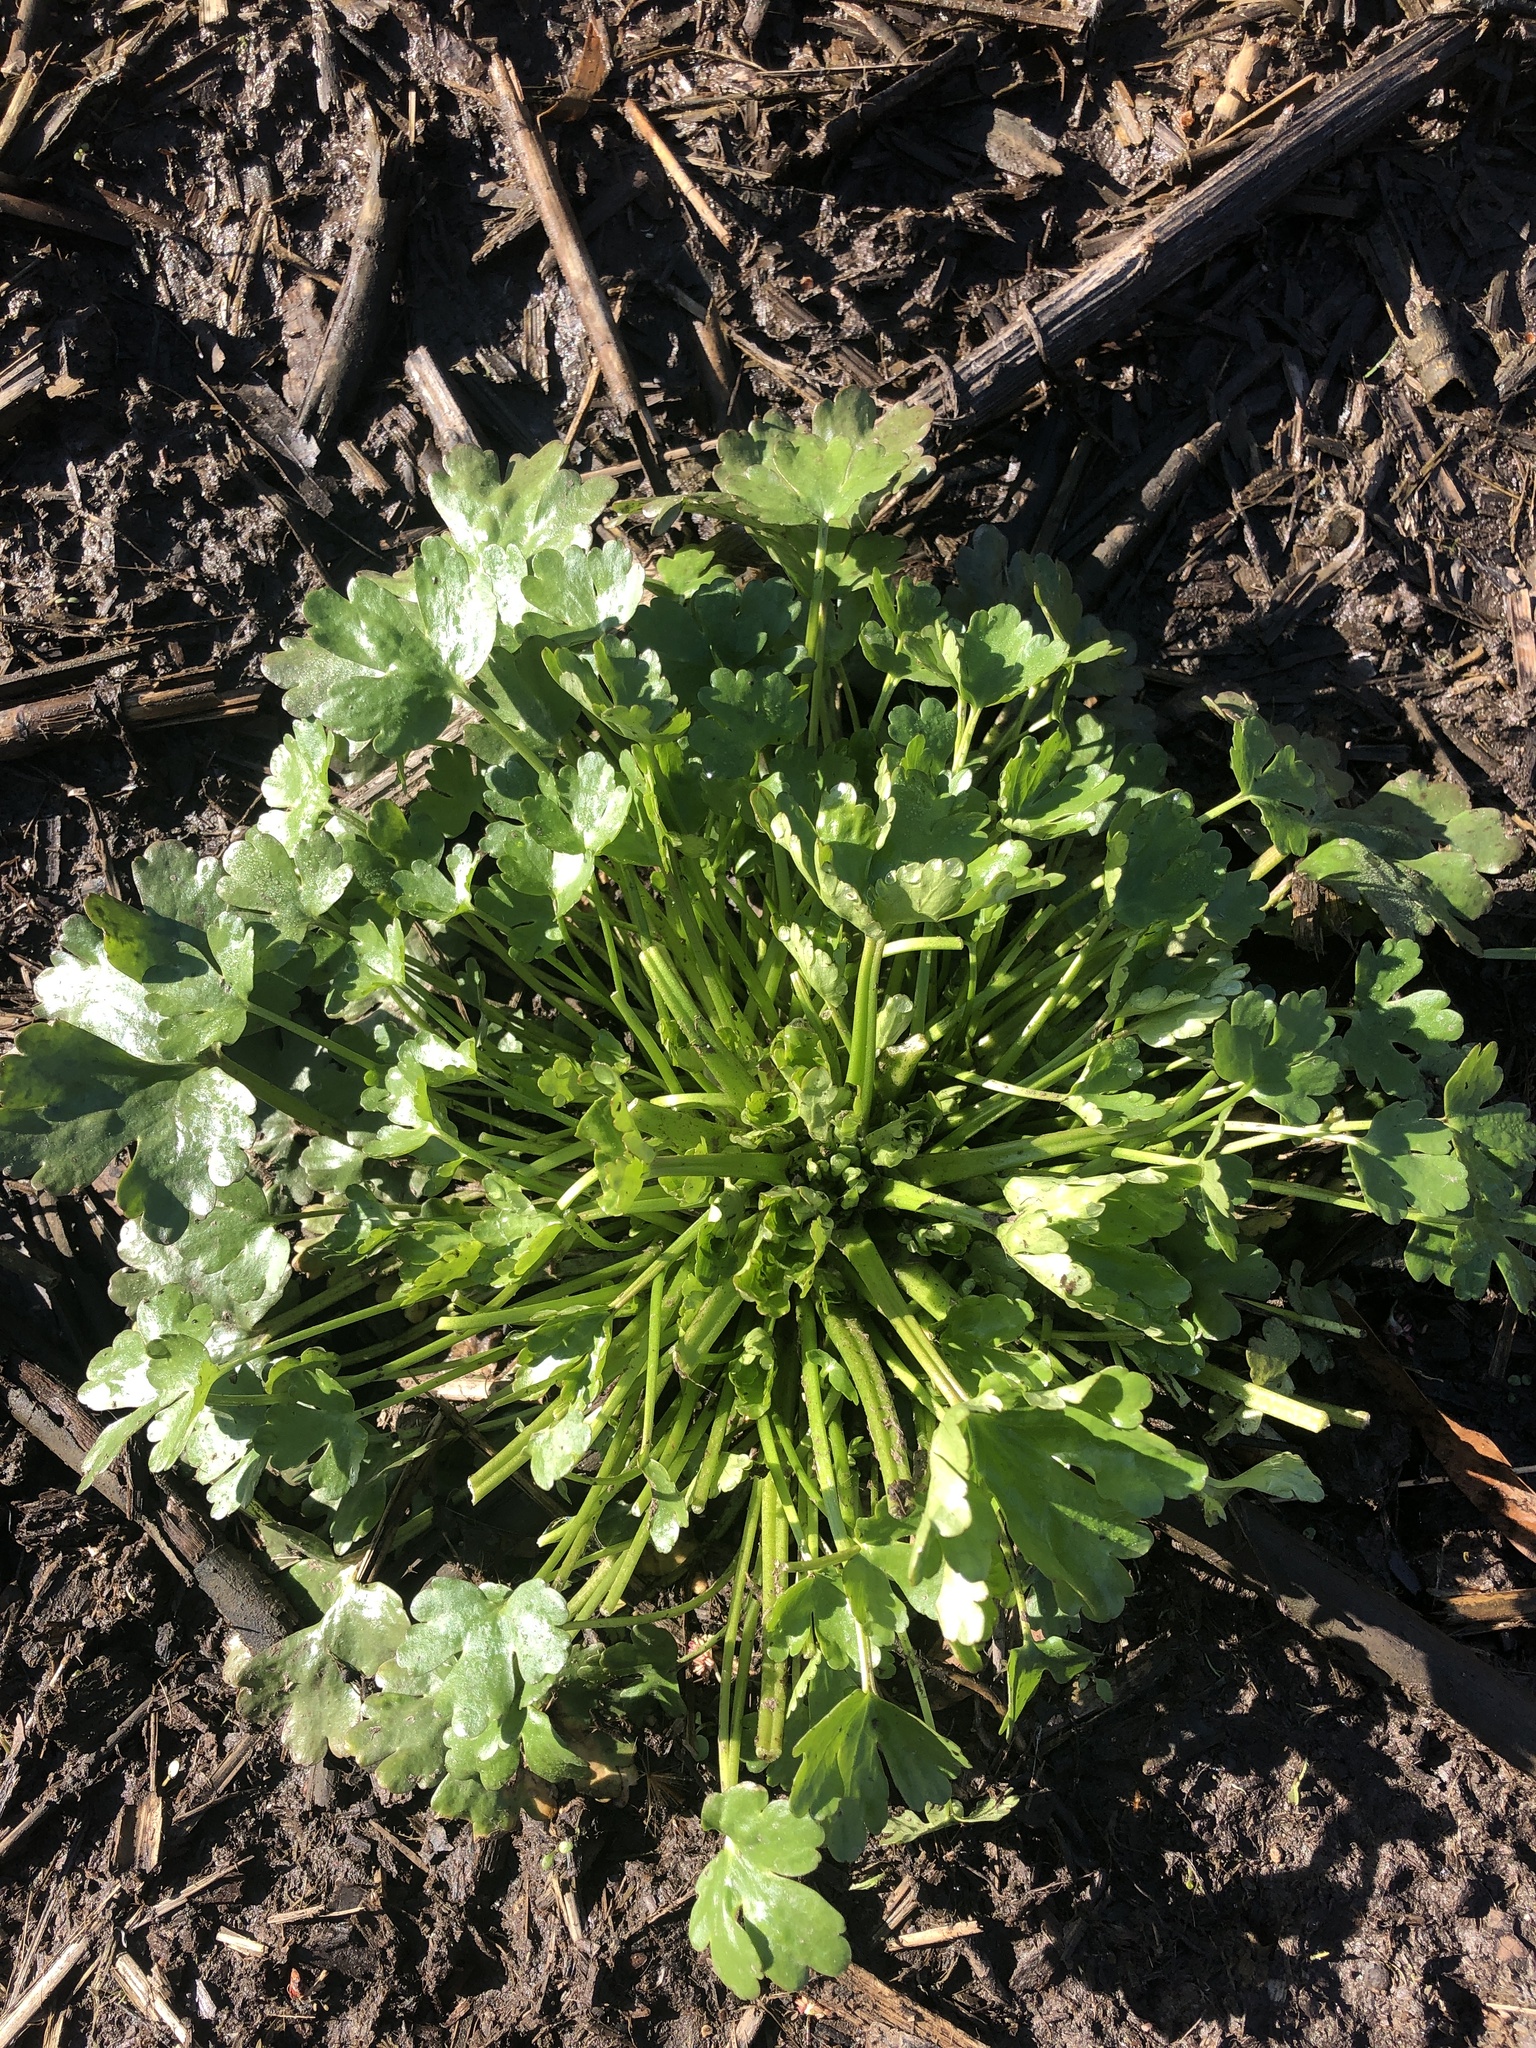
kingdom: Plantae
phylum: Tracheophyta
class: Magnoliopsida
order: Ranunculales
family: Ranunculaceae
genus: Ranunculus
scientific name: Ranunculus sceleratus
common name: Celery-leaved buttercup
